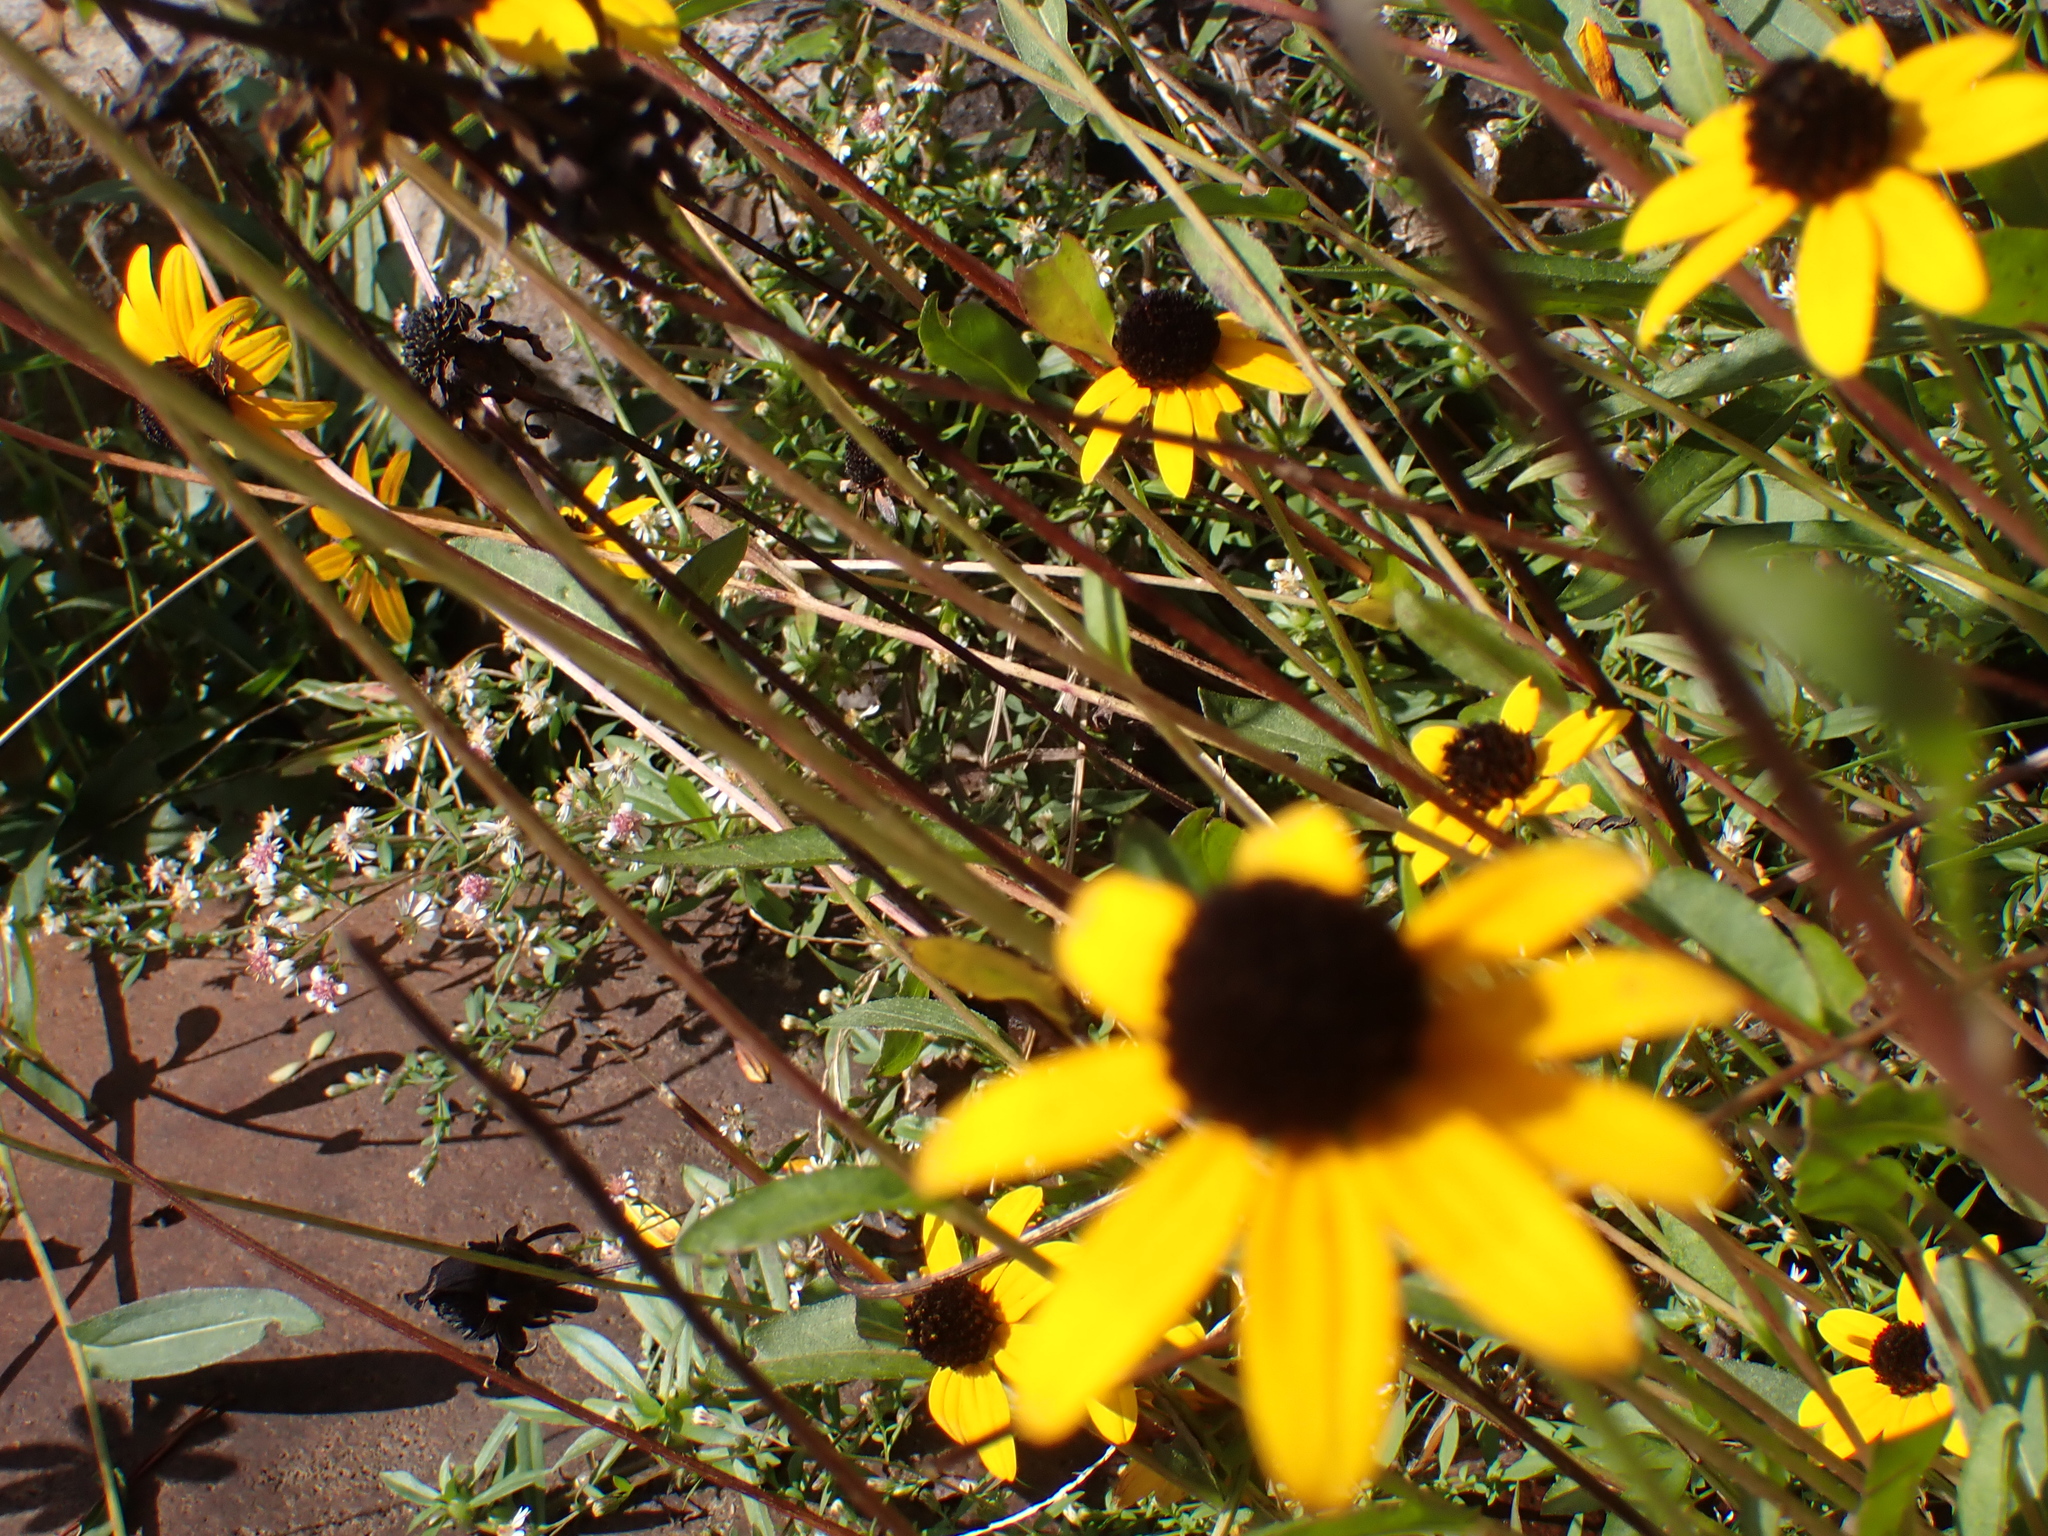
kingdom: Plantae
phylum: Tracheophyta
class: Magnoliopsida
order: Asterales
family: Asteraceae
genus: Rudbeckia
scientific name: Rudbeckia triloba
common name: Thin-leaved coneflower
